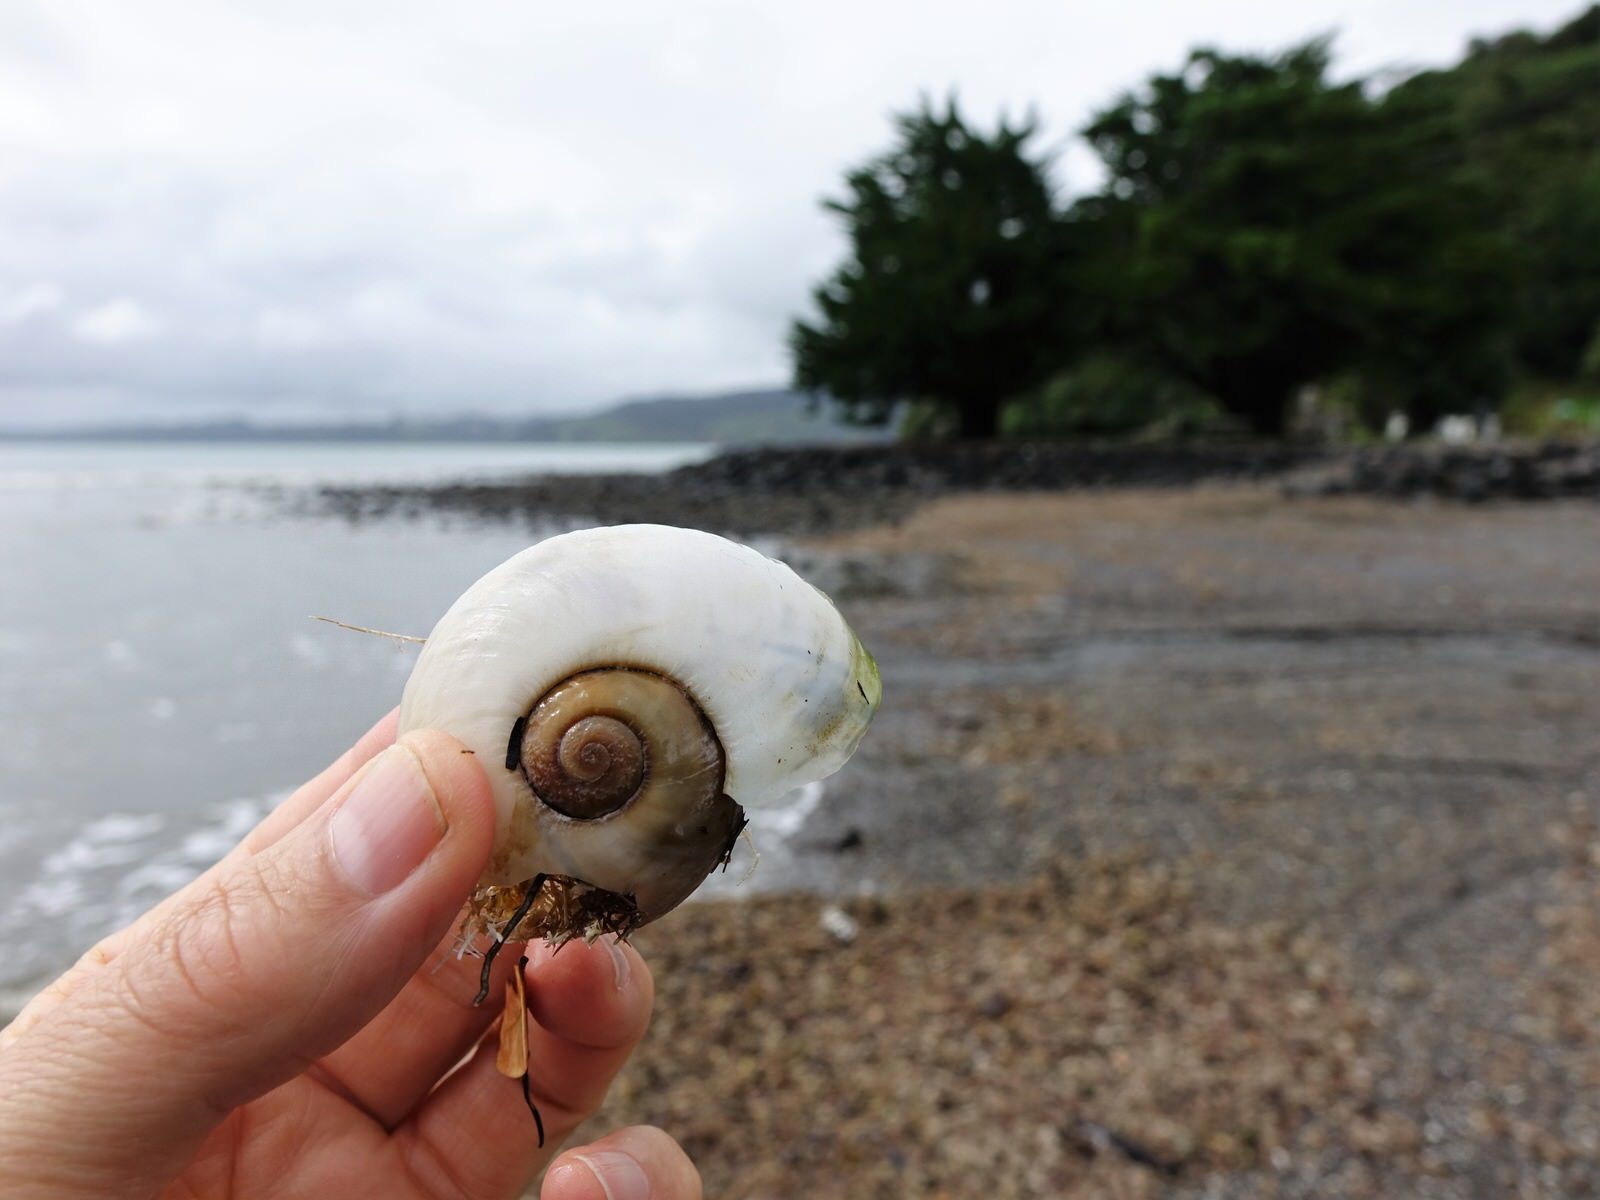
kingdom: Animalia
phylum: Mollusca
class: Gastropoda
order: Stylommatophora
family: Rhytididae
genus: Paryphanta
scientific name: Paryphanta busbyi
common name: Kauri snail
